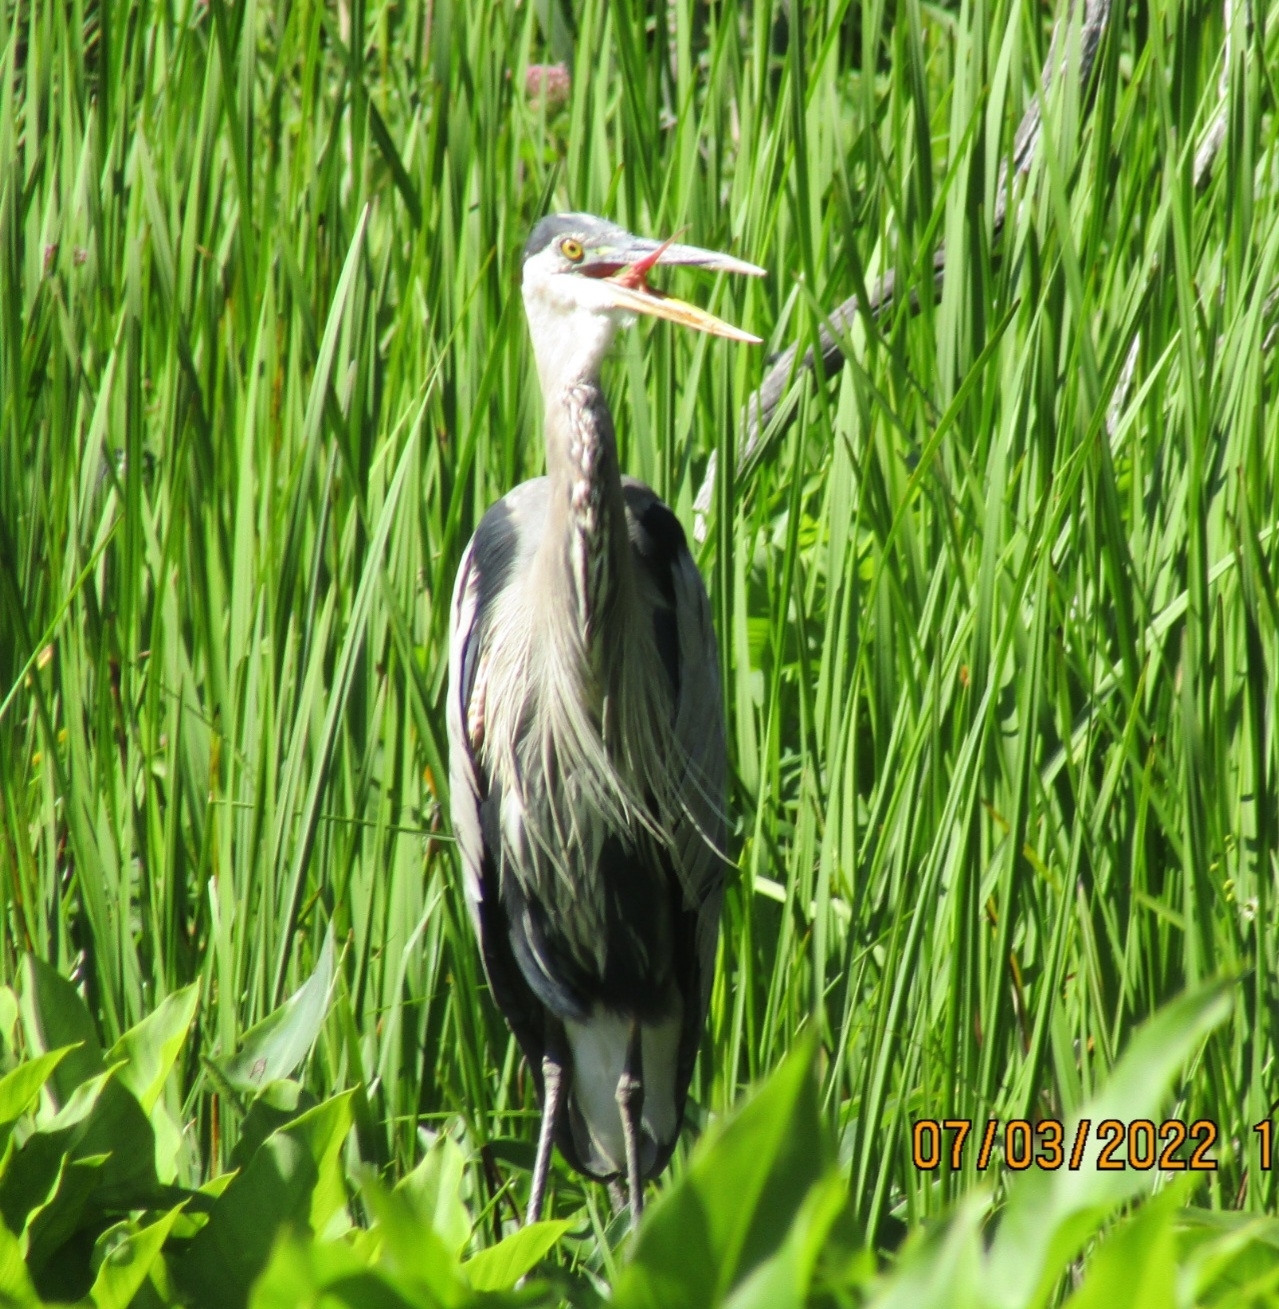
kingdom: Animalia
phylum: Chordata
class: Aves
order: Pelecaniformes
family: Ardeidae
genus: Ardea
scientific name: Ardea herodias
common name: Great blue heron
